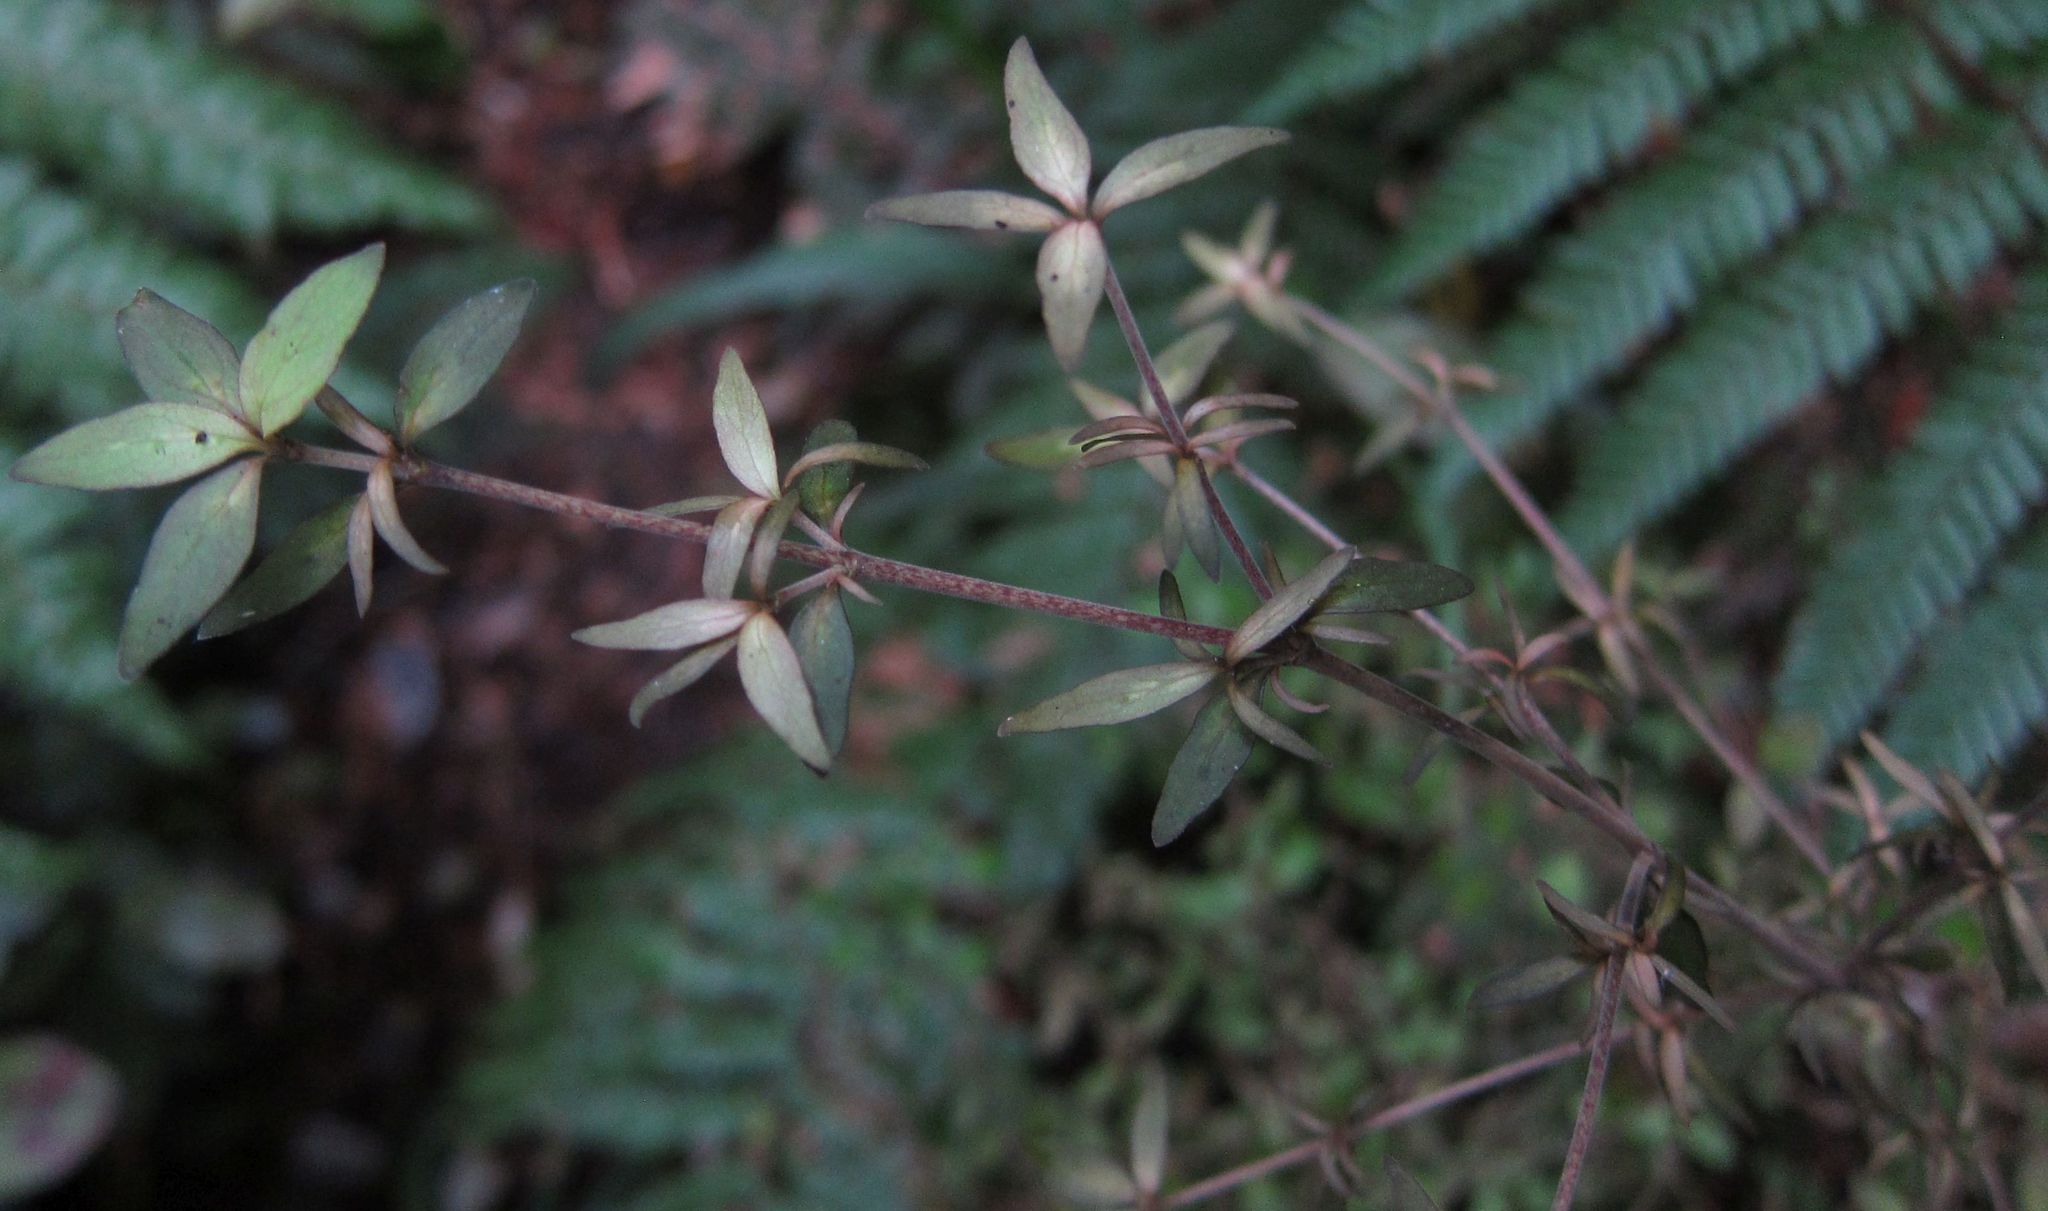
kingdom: Plantae
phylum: Tracheophyta
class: Magnoliopsida
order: Gentianales
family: Rubiaceae
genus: Coprosma
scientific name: Coprosma rhamnoides
